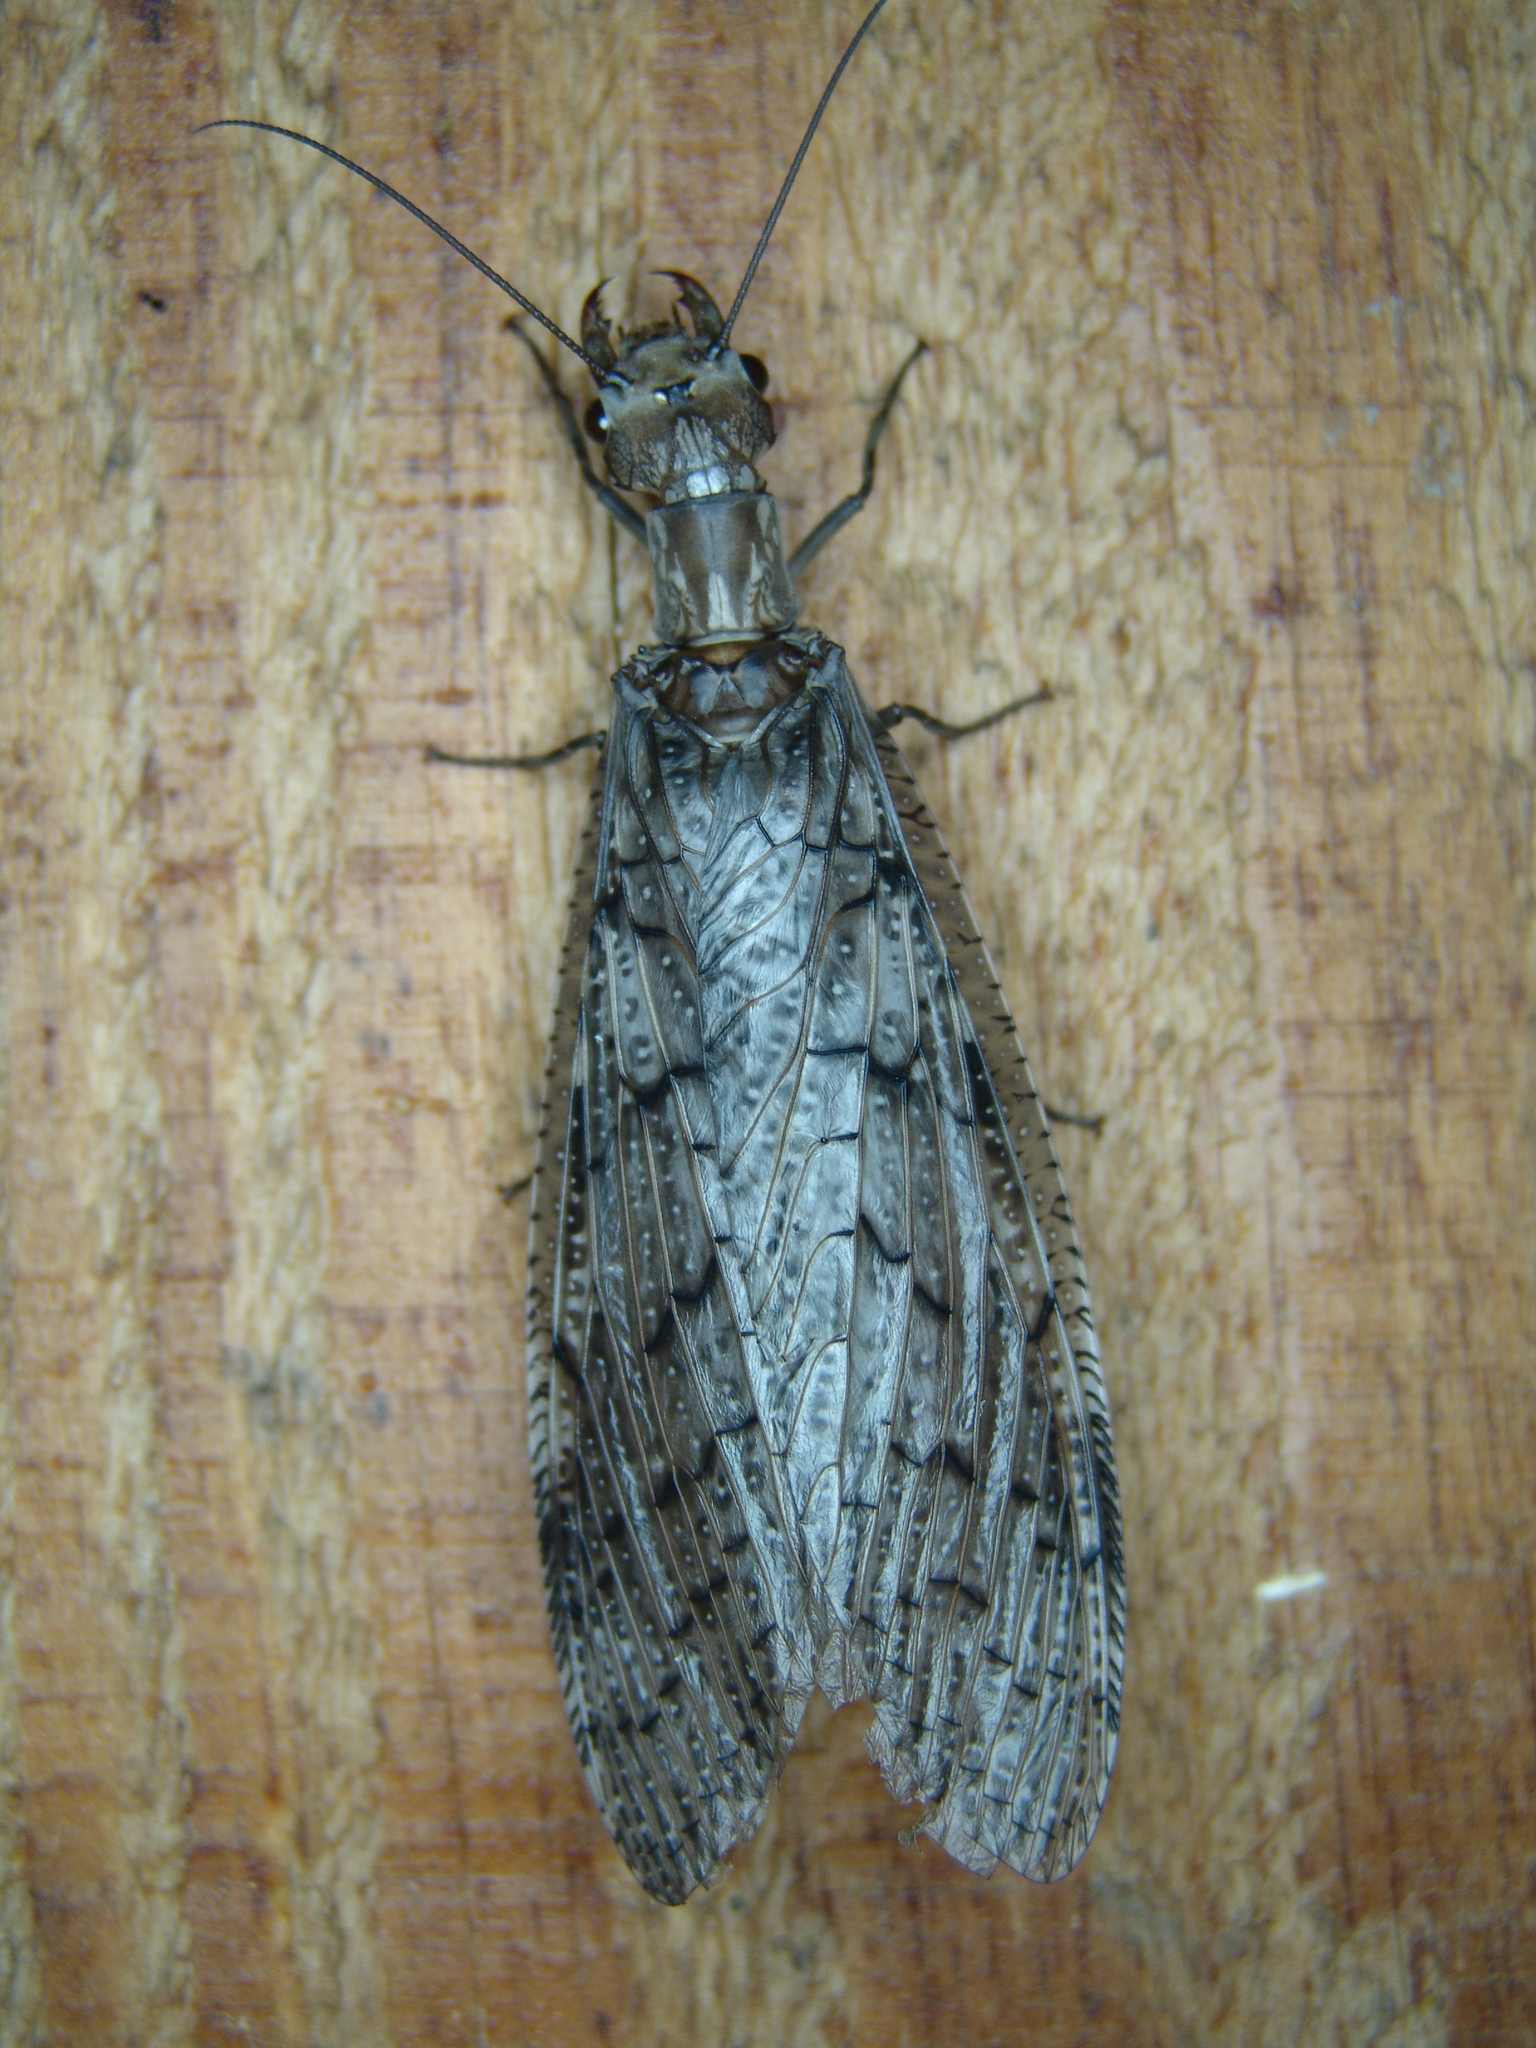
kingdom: Animalia
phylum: Arthropoda
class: Insecta
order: Megaloptera
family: Corydalidae
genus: Corydalus
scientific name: Corydalus texanus
